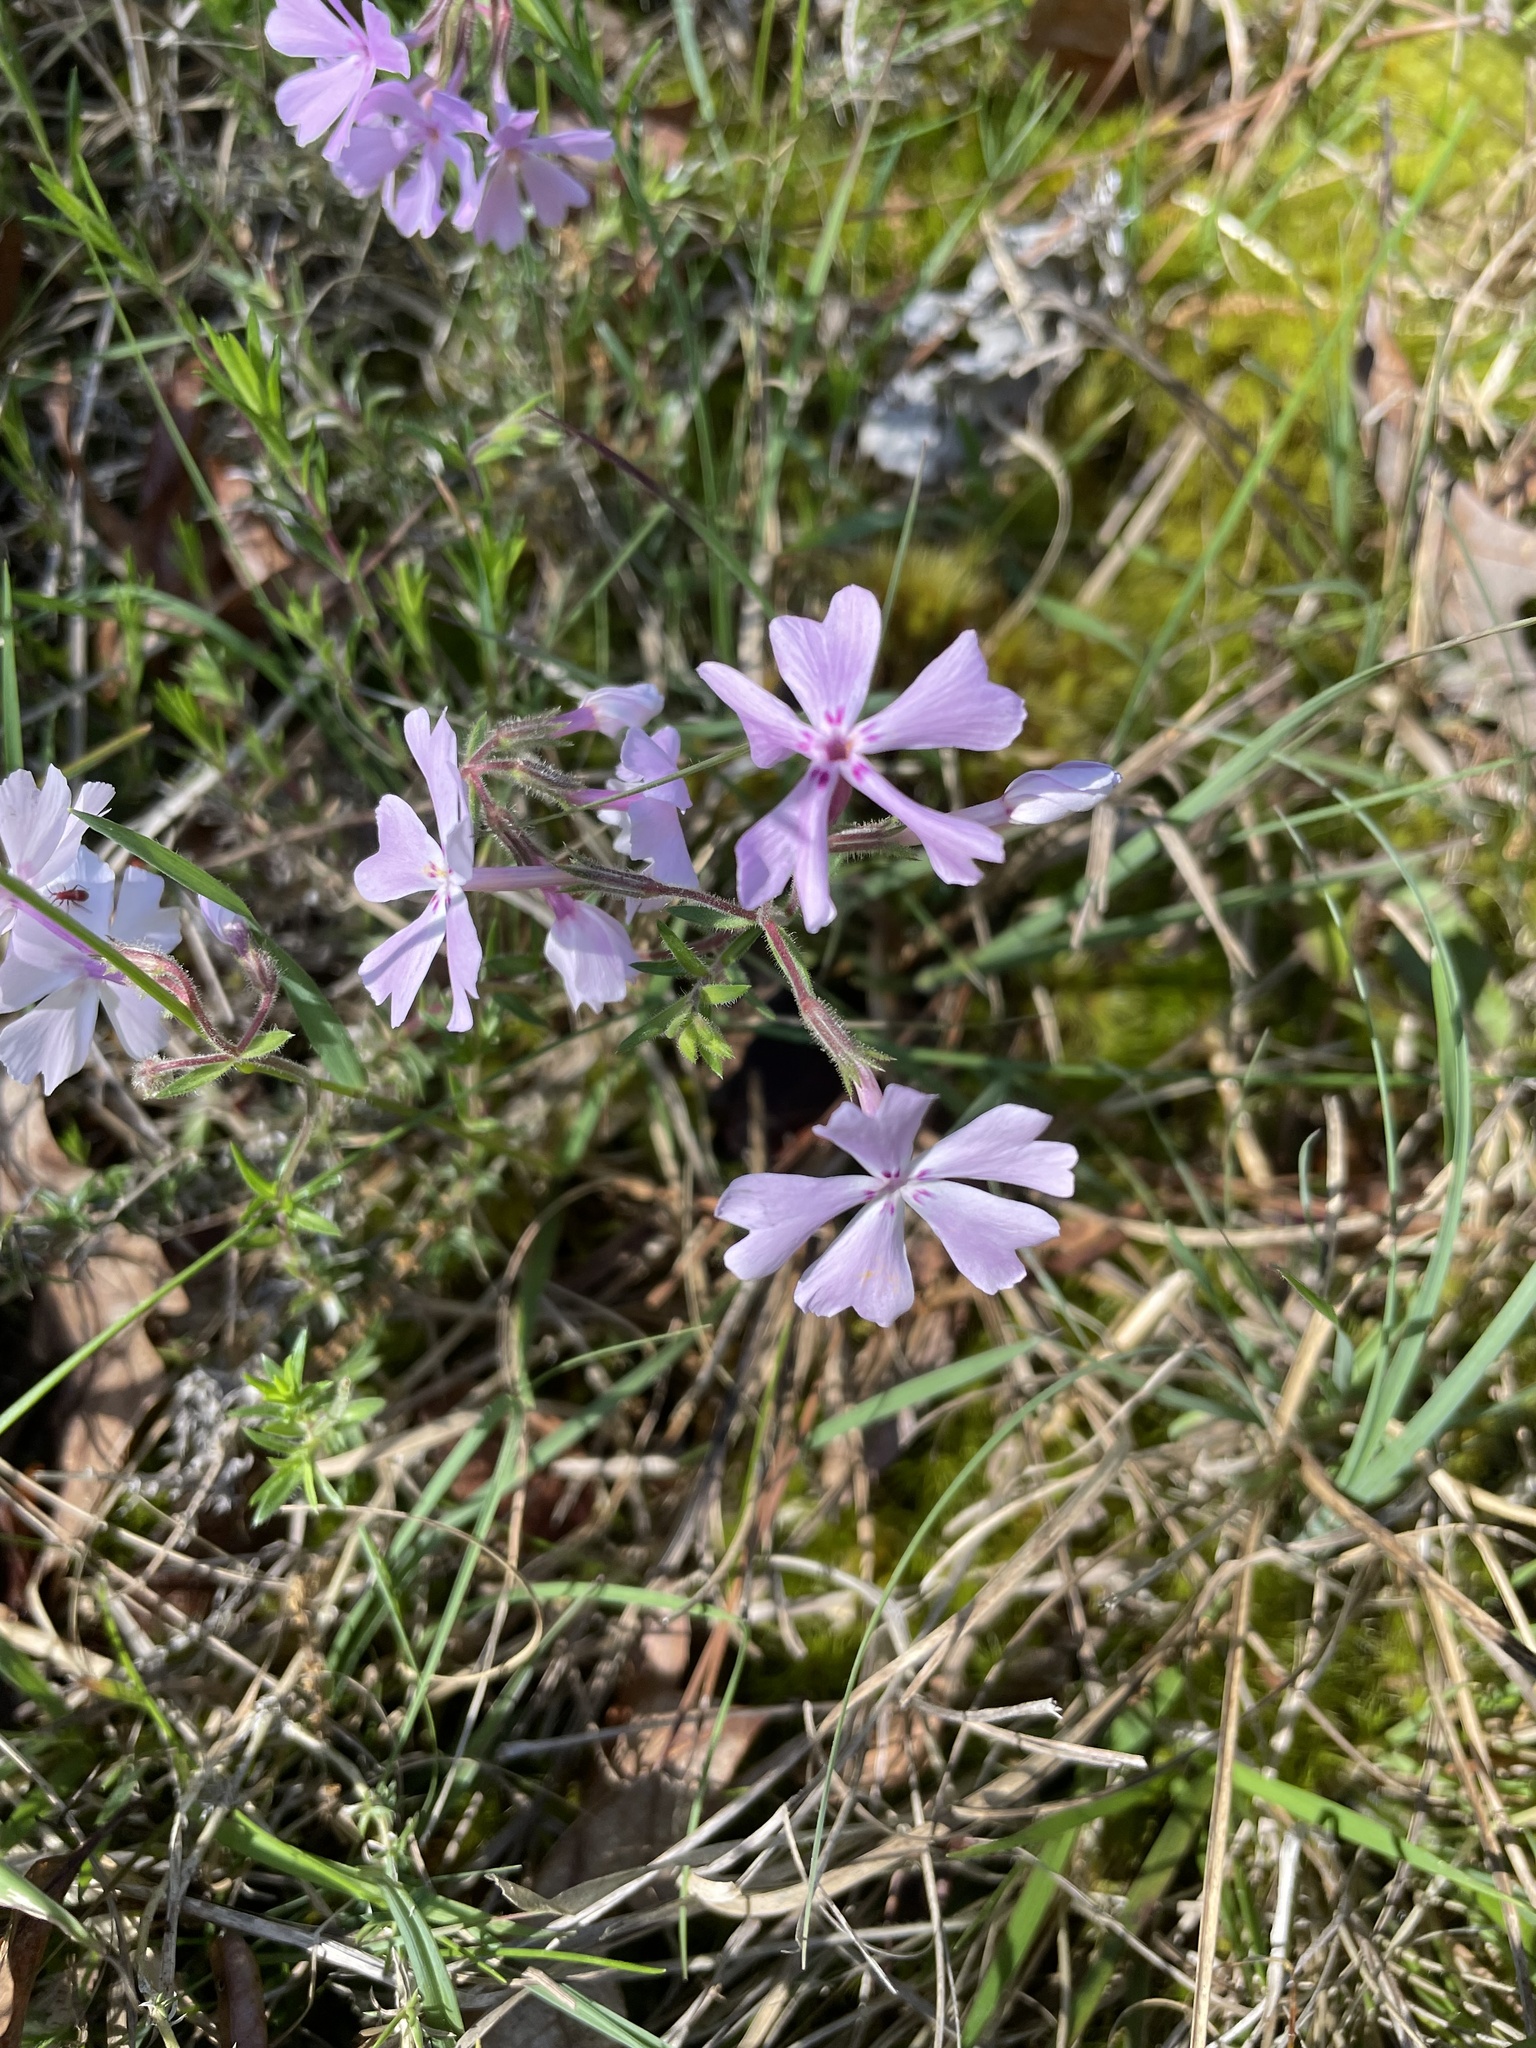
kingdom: Plantae
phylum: Tracheophyta
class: Magnoliopsida
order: Ericales
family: Polemoniaceae
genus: Phlox
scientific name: Phlox nivalis
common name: Trailing phlox
